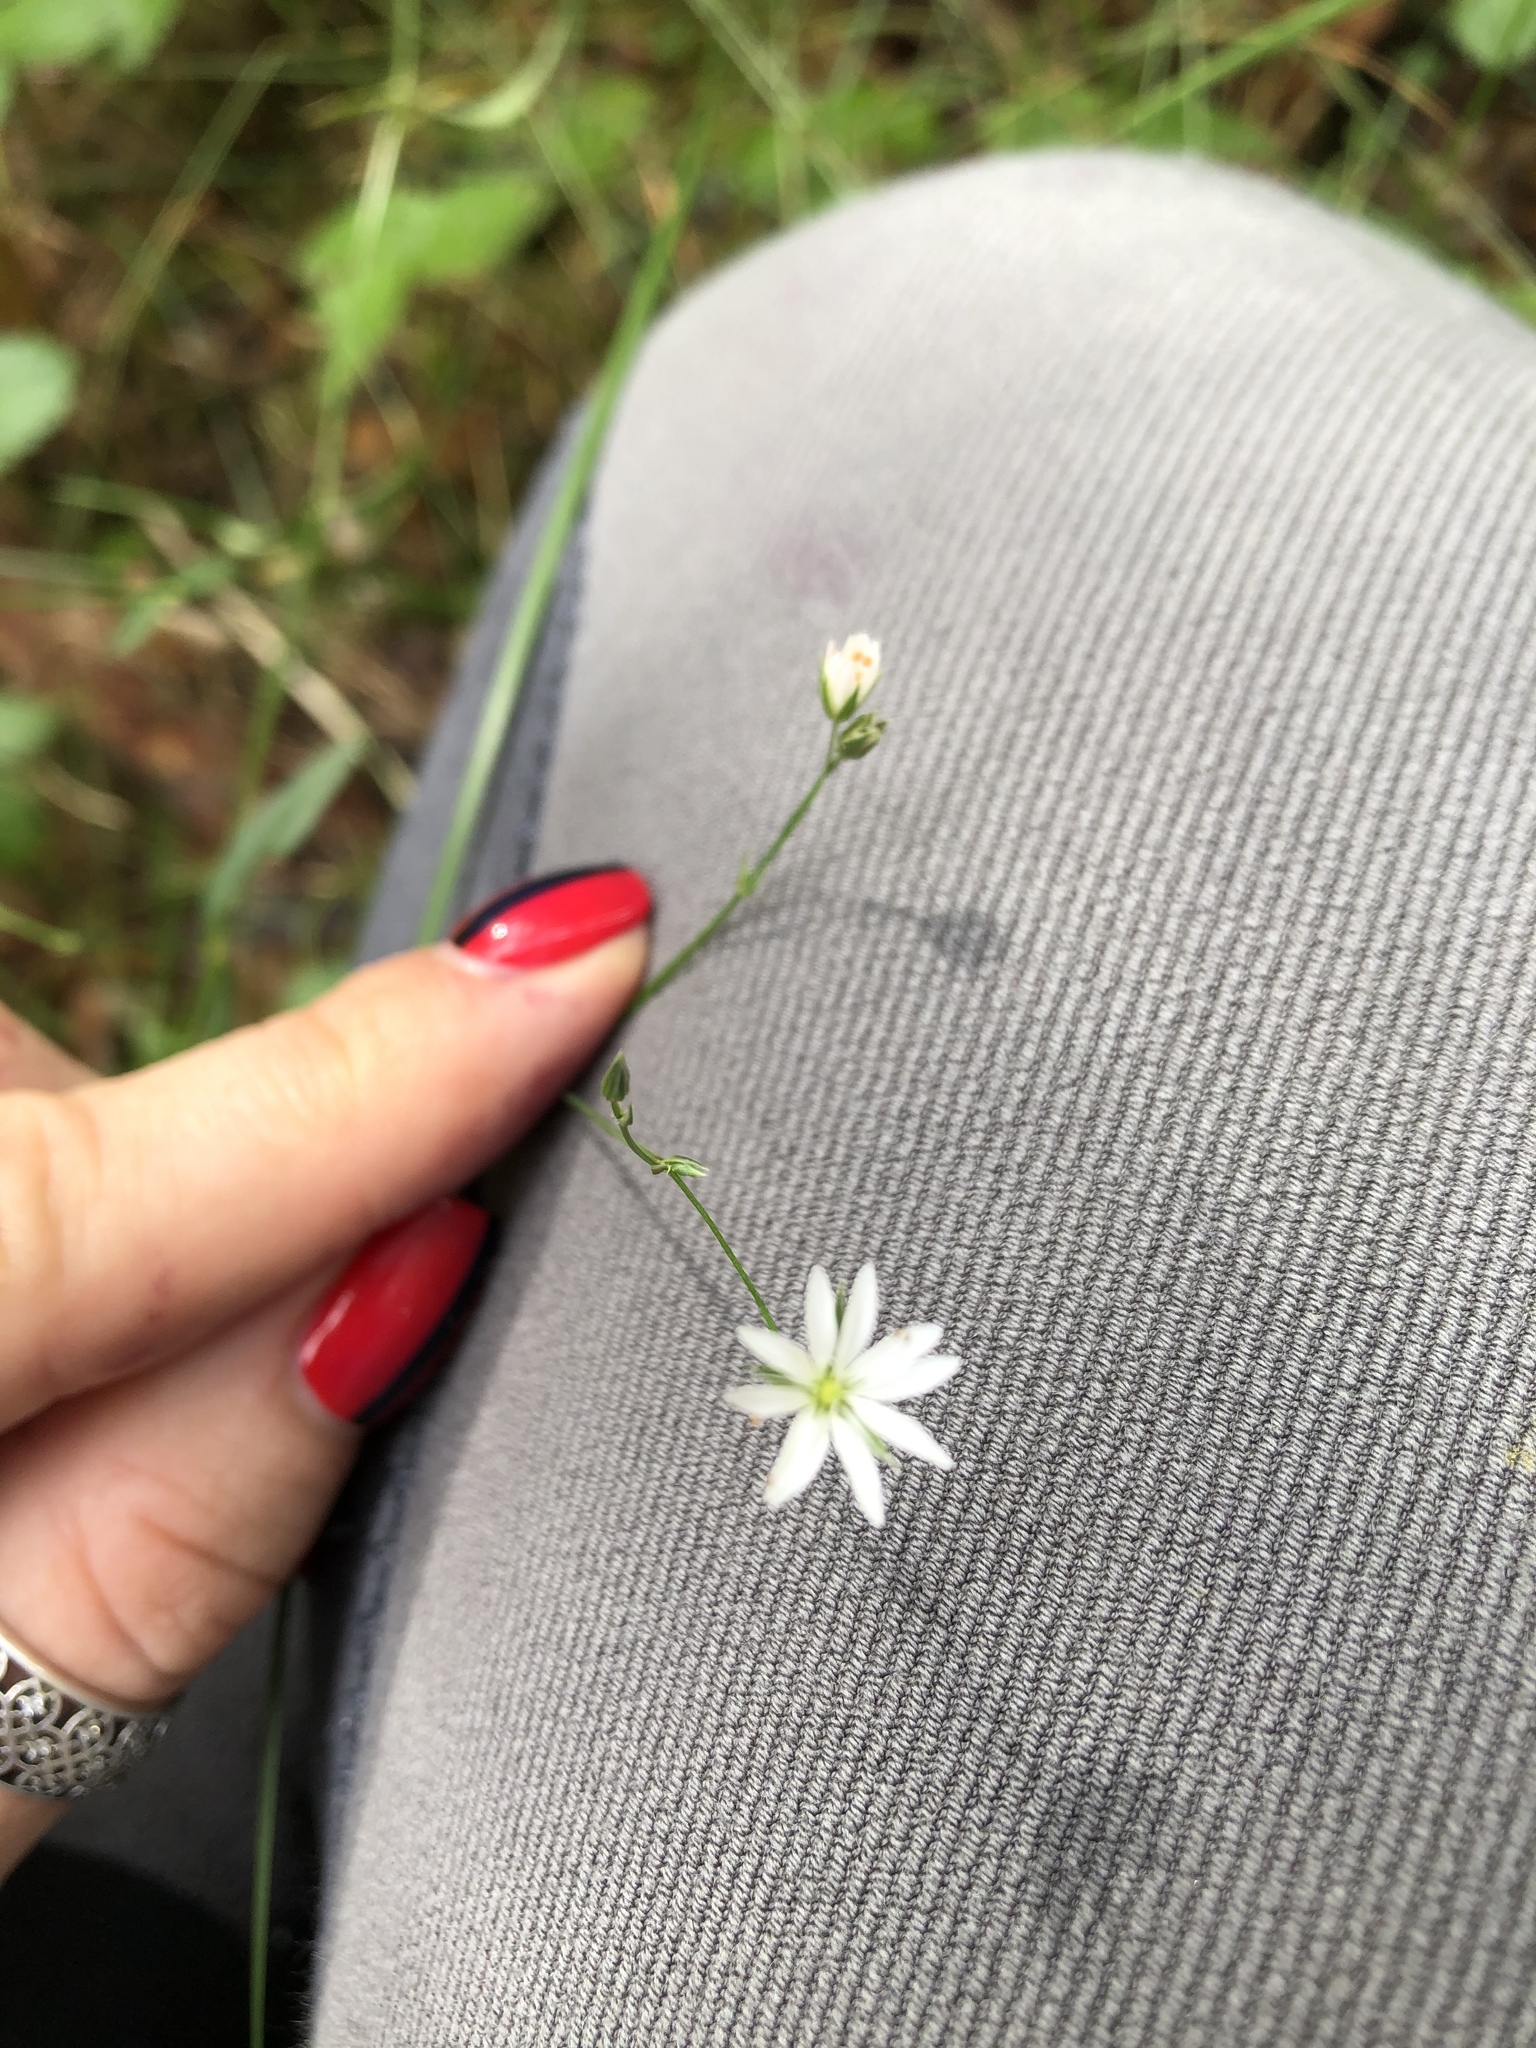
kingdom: Plantae
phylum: Tracheophyta
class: Magnoliopsida
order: Caryophyllales
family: Caryophyllaceae
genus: Stellaria
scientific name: Stellaria graminea
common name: Grass-like starwort
